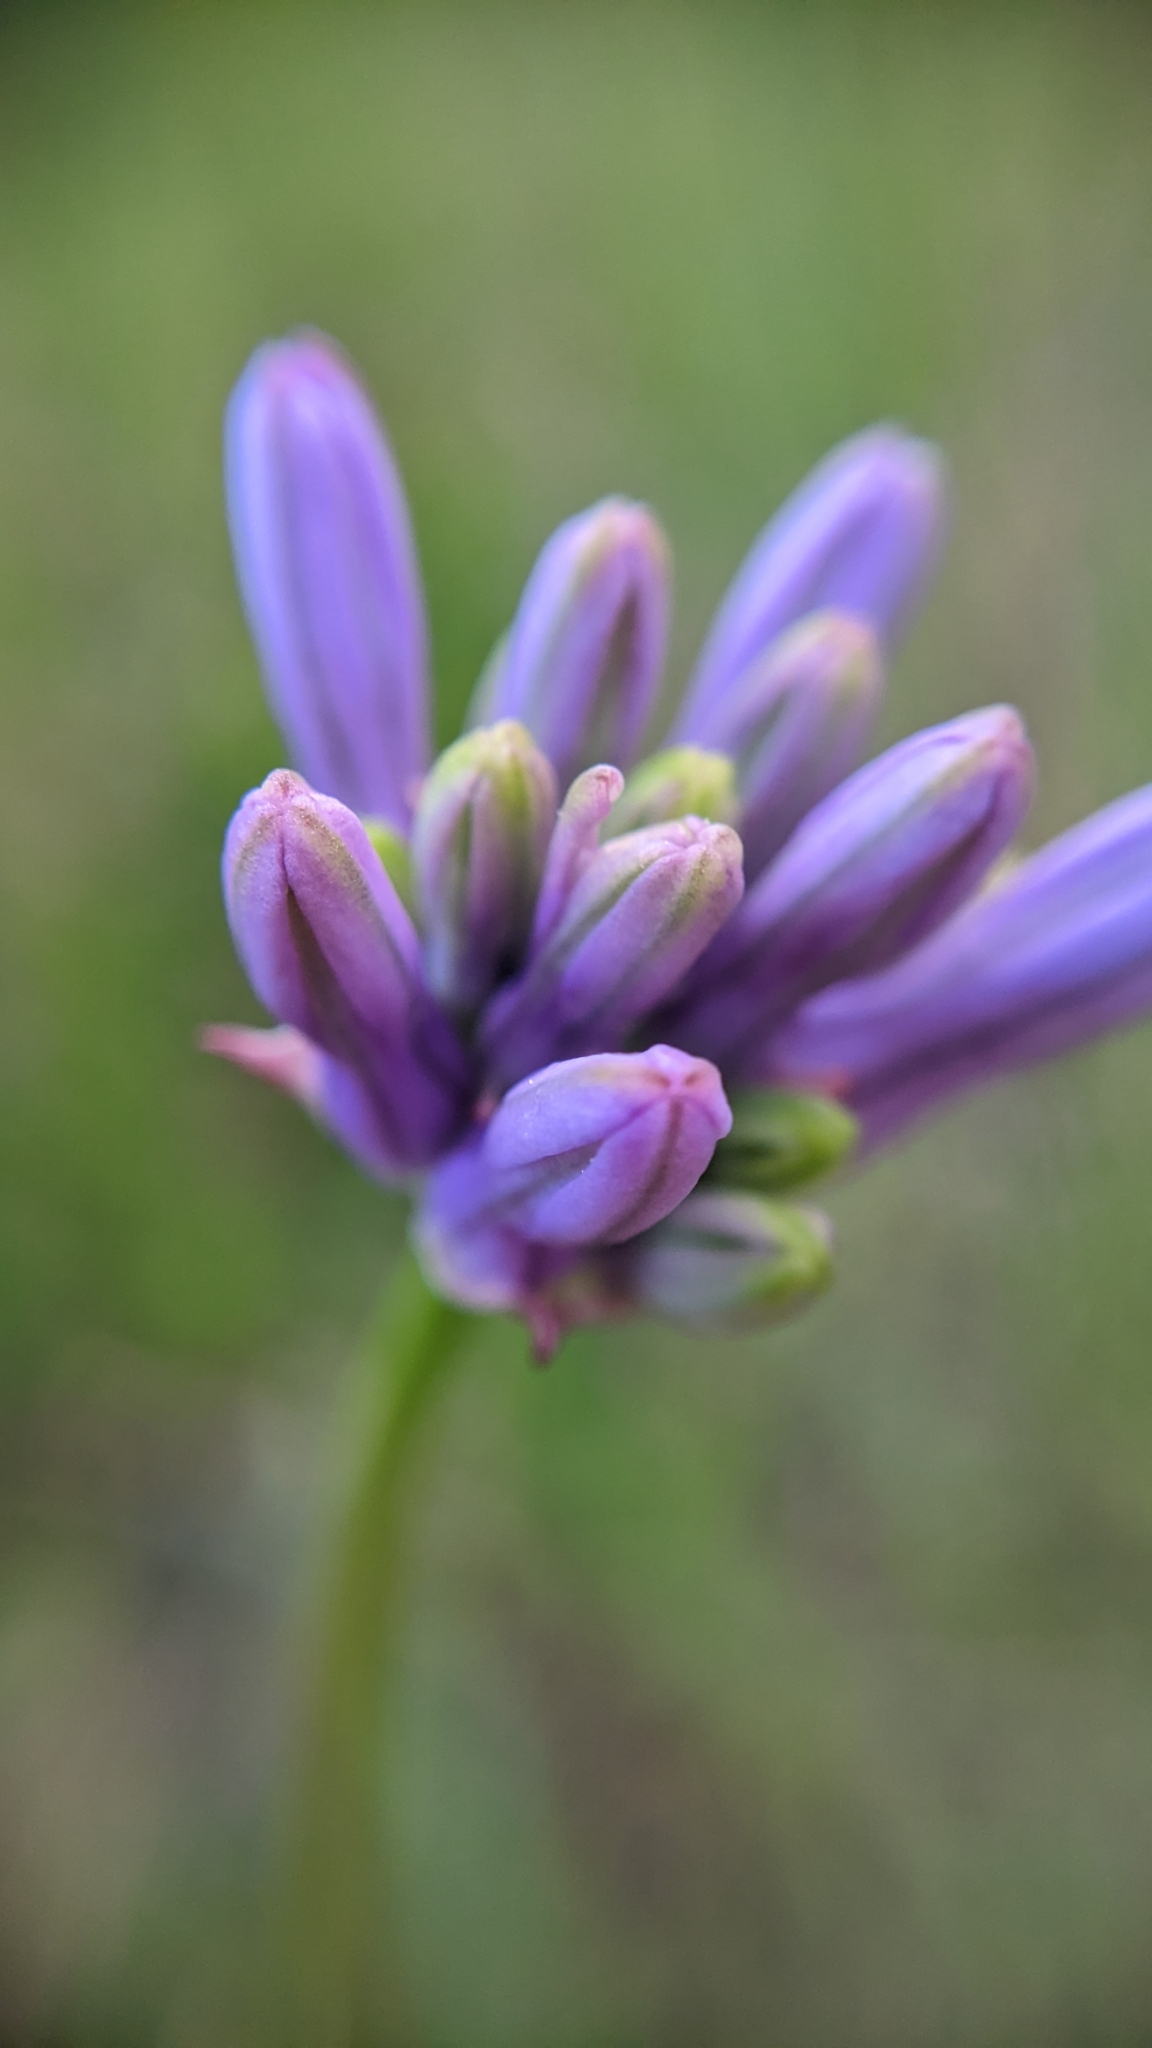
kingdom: Plantae
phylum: Tracheophyta
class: Liliopsida
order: Asparagales
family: Asparagaceae
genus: Dichelostemma
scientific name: Dichelostemma multiflorum
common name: Round-tooth ookow
